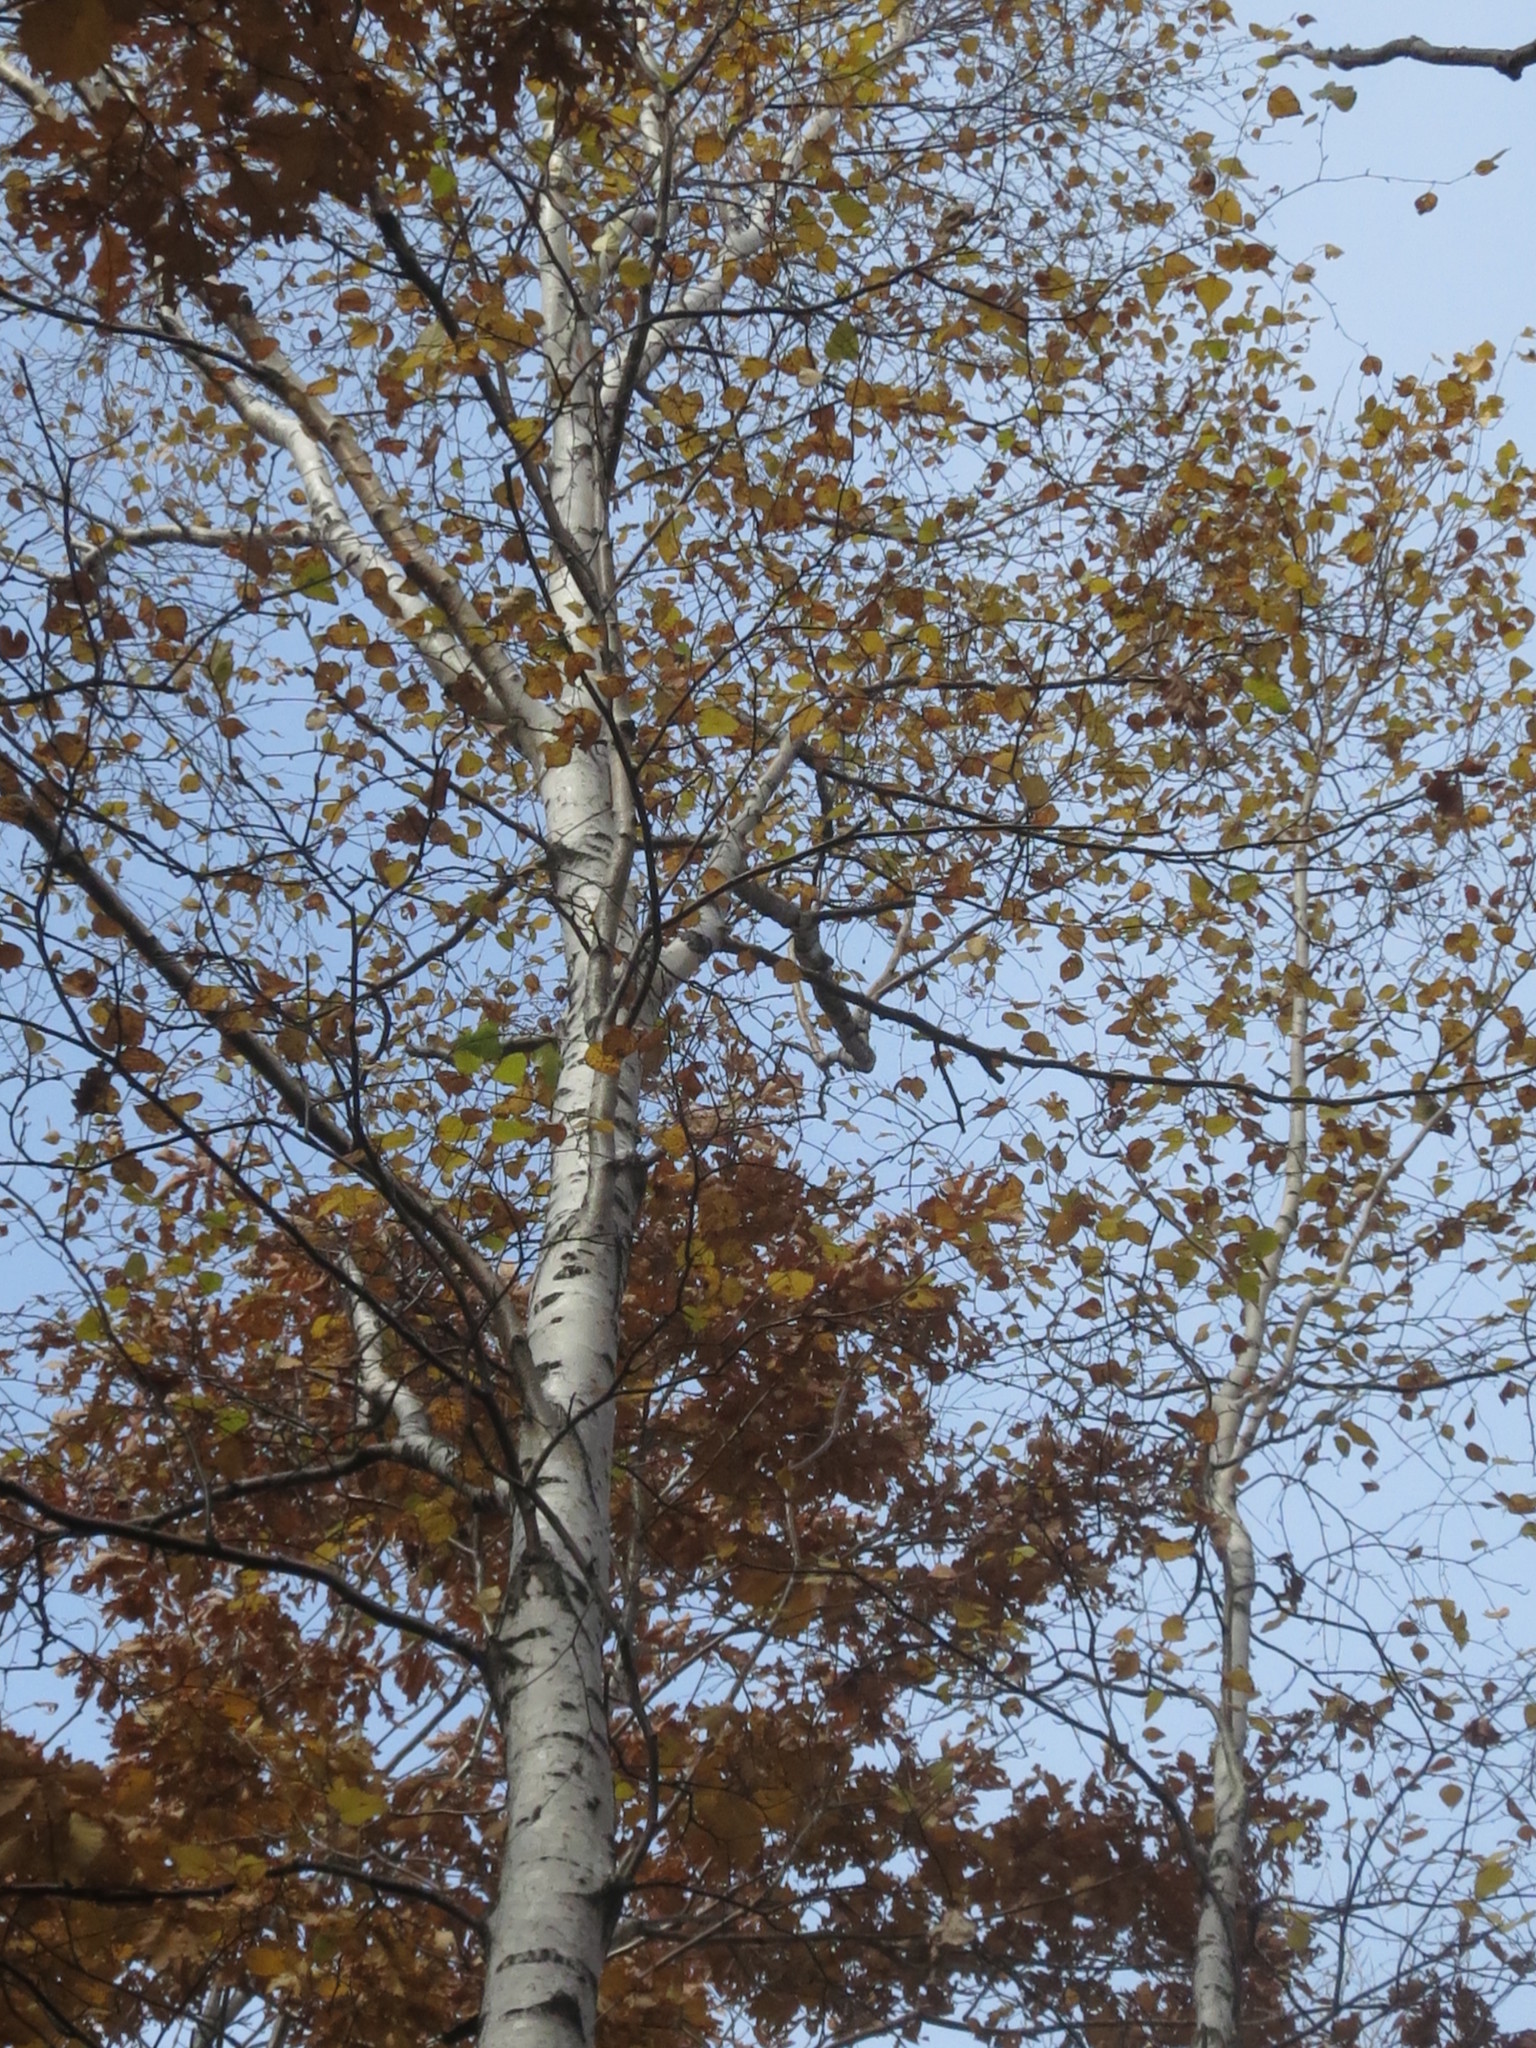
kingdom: Plantae
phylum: Tracheophyta
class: Magnoliopsida
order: Fagales
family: Betulaceae
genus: Betula
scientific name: Betula pendula
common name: Silver birch
